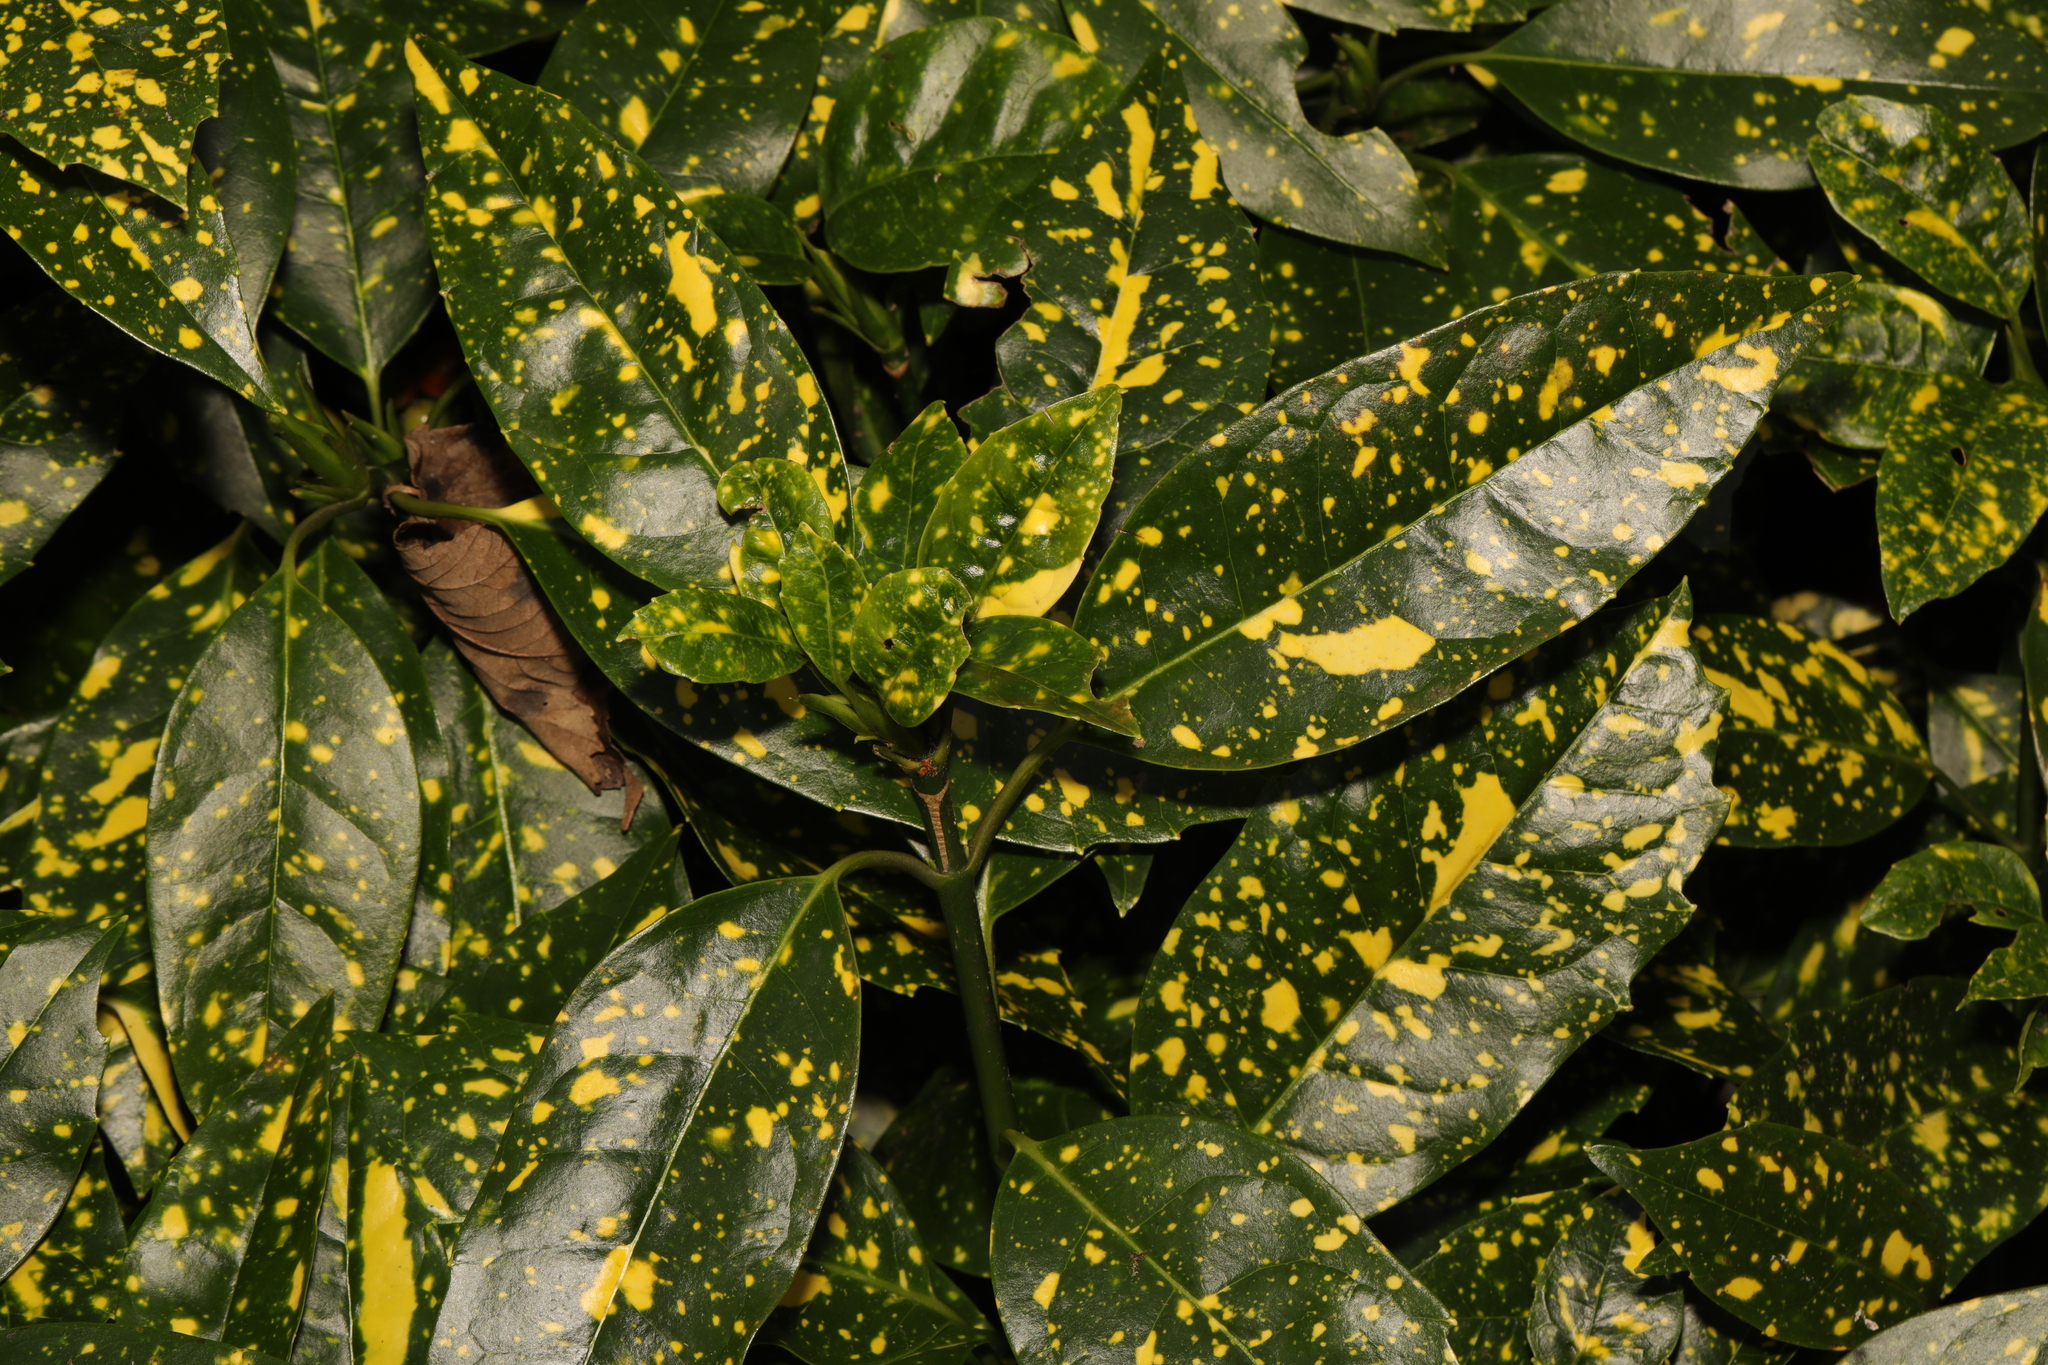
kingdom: Plantae
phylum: Tracheophyta
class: Magnoliopsida
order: Garryales
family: Garryaceae
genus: Aucuba
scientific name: Aucuba japonica
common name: Spotted-laurel
